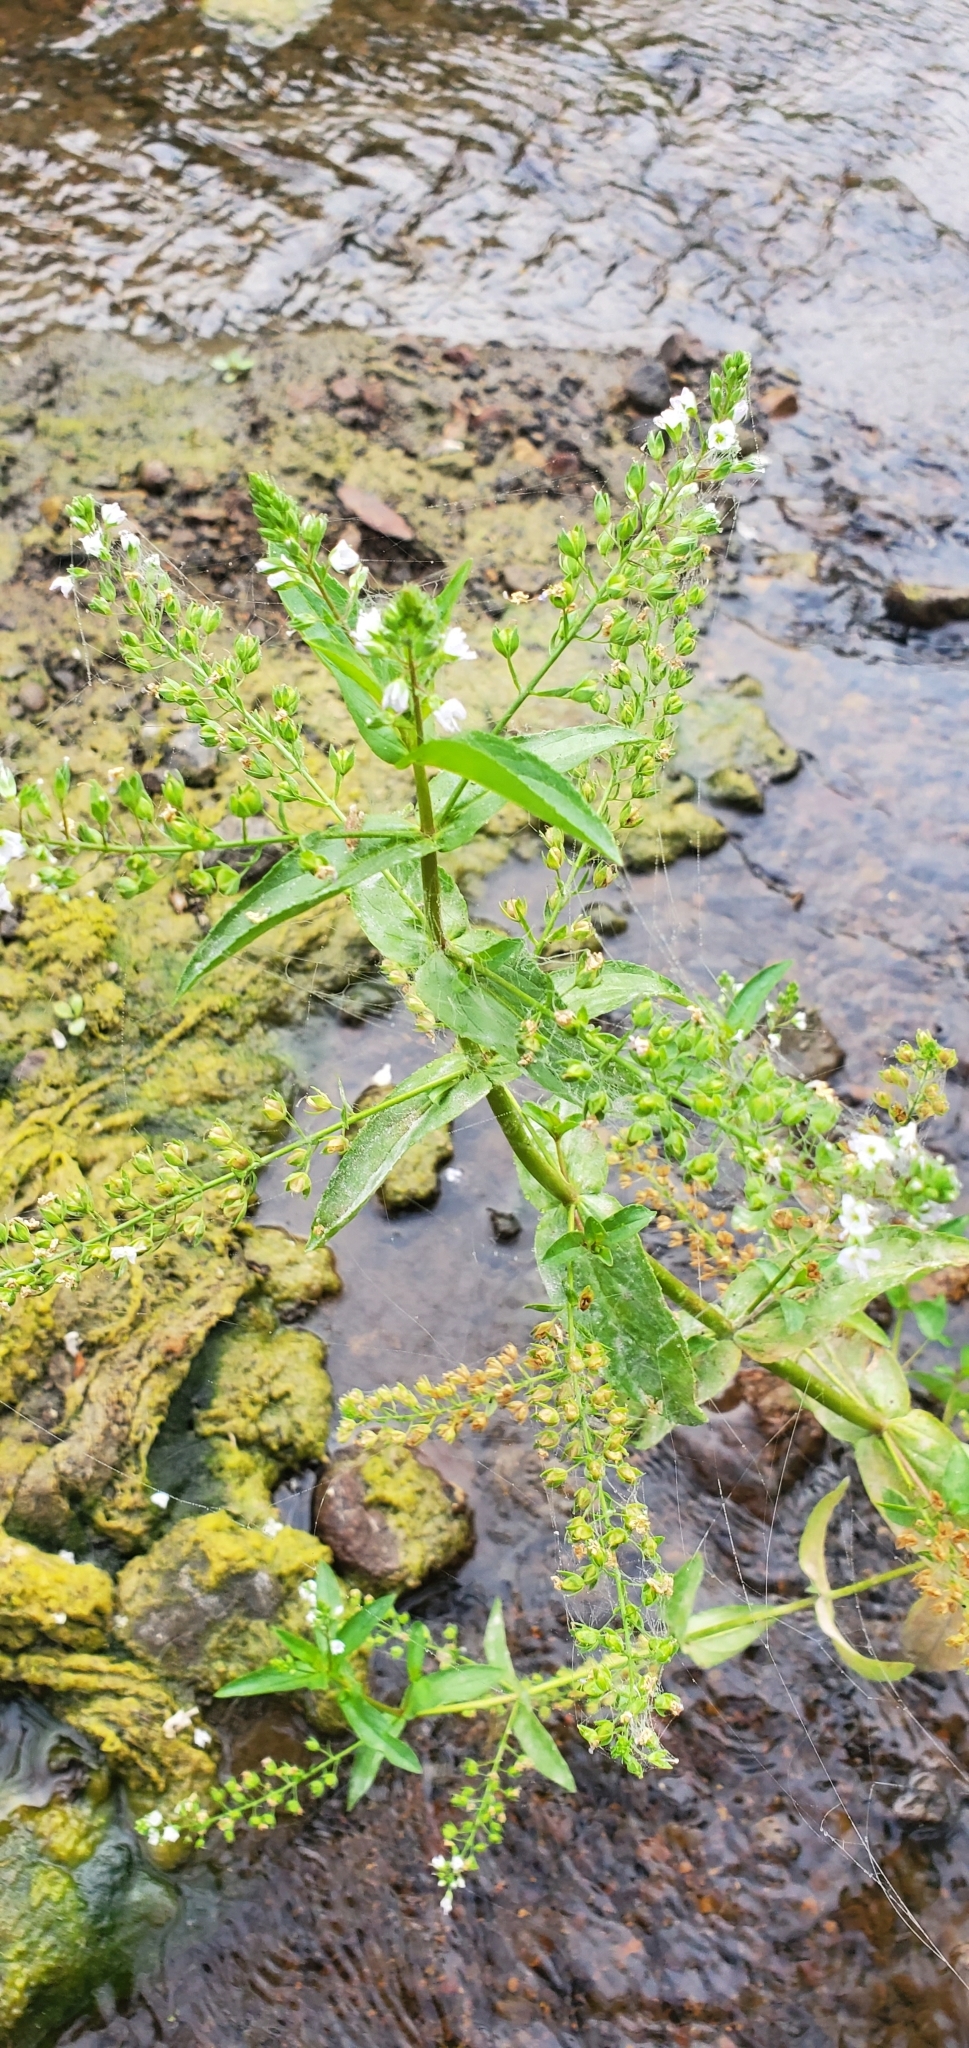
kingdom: Plantae
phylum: Tracheophyta
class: Magnoliopsida
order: Lamiales
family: Plantaginaceae
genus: Veronica
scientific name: Veronica anagallis-aquatica
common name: Water speedwell
